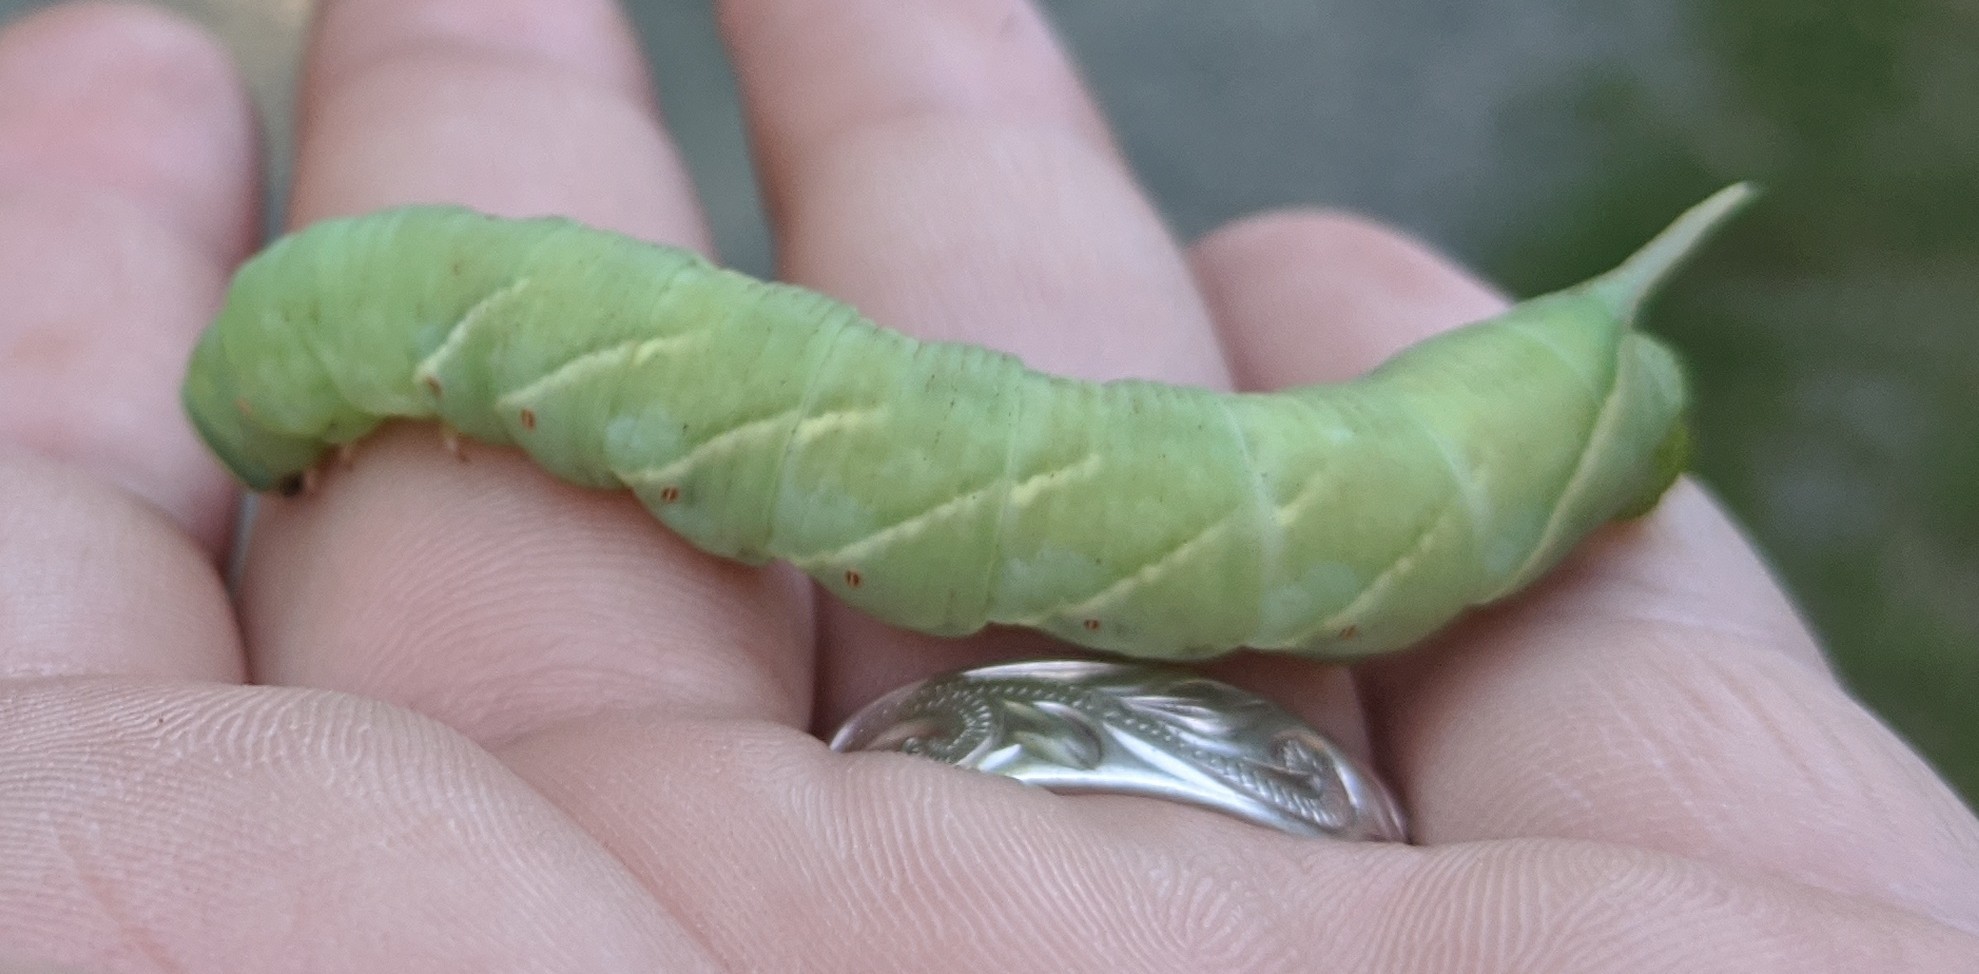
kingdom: Animalia
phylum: Arthropoda
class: Insecta
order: Lepidoptera
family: Sphingidae
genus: Ceratomia
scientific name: Ceratomia undulosa
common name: Waved sphinx
